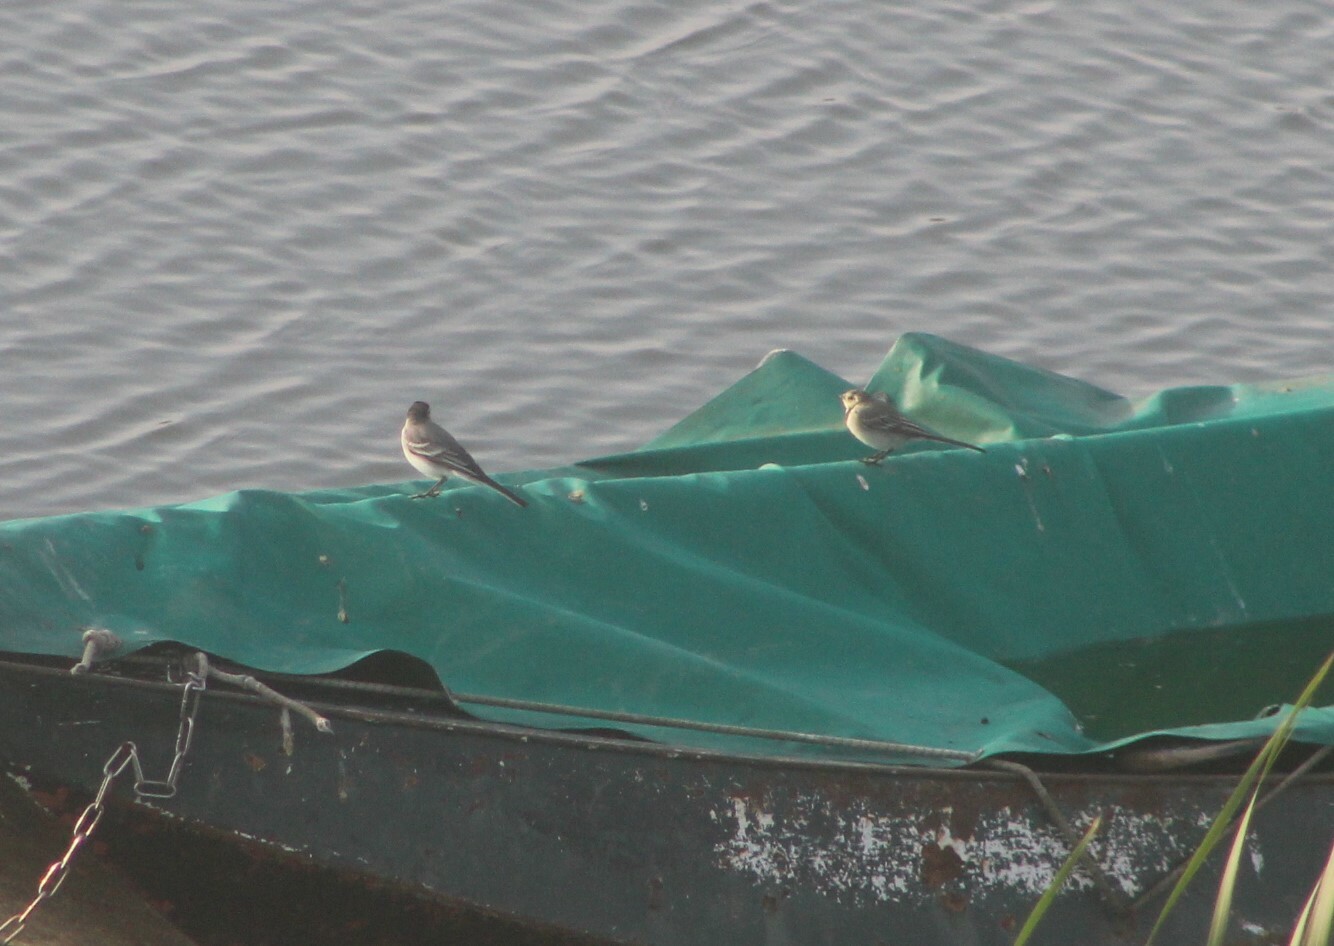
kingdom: Animalia
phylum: Chordata
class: Aves
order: Passeriformes
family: Motacillidae
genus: Motacilla
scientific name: Motacilla alba
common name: White wagtail
